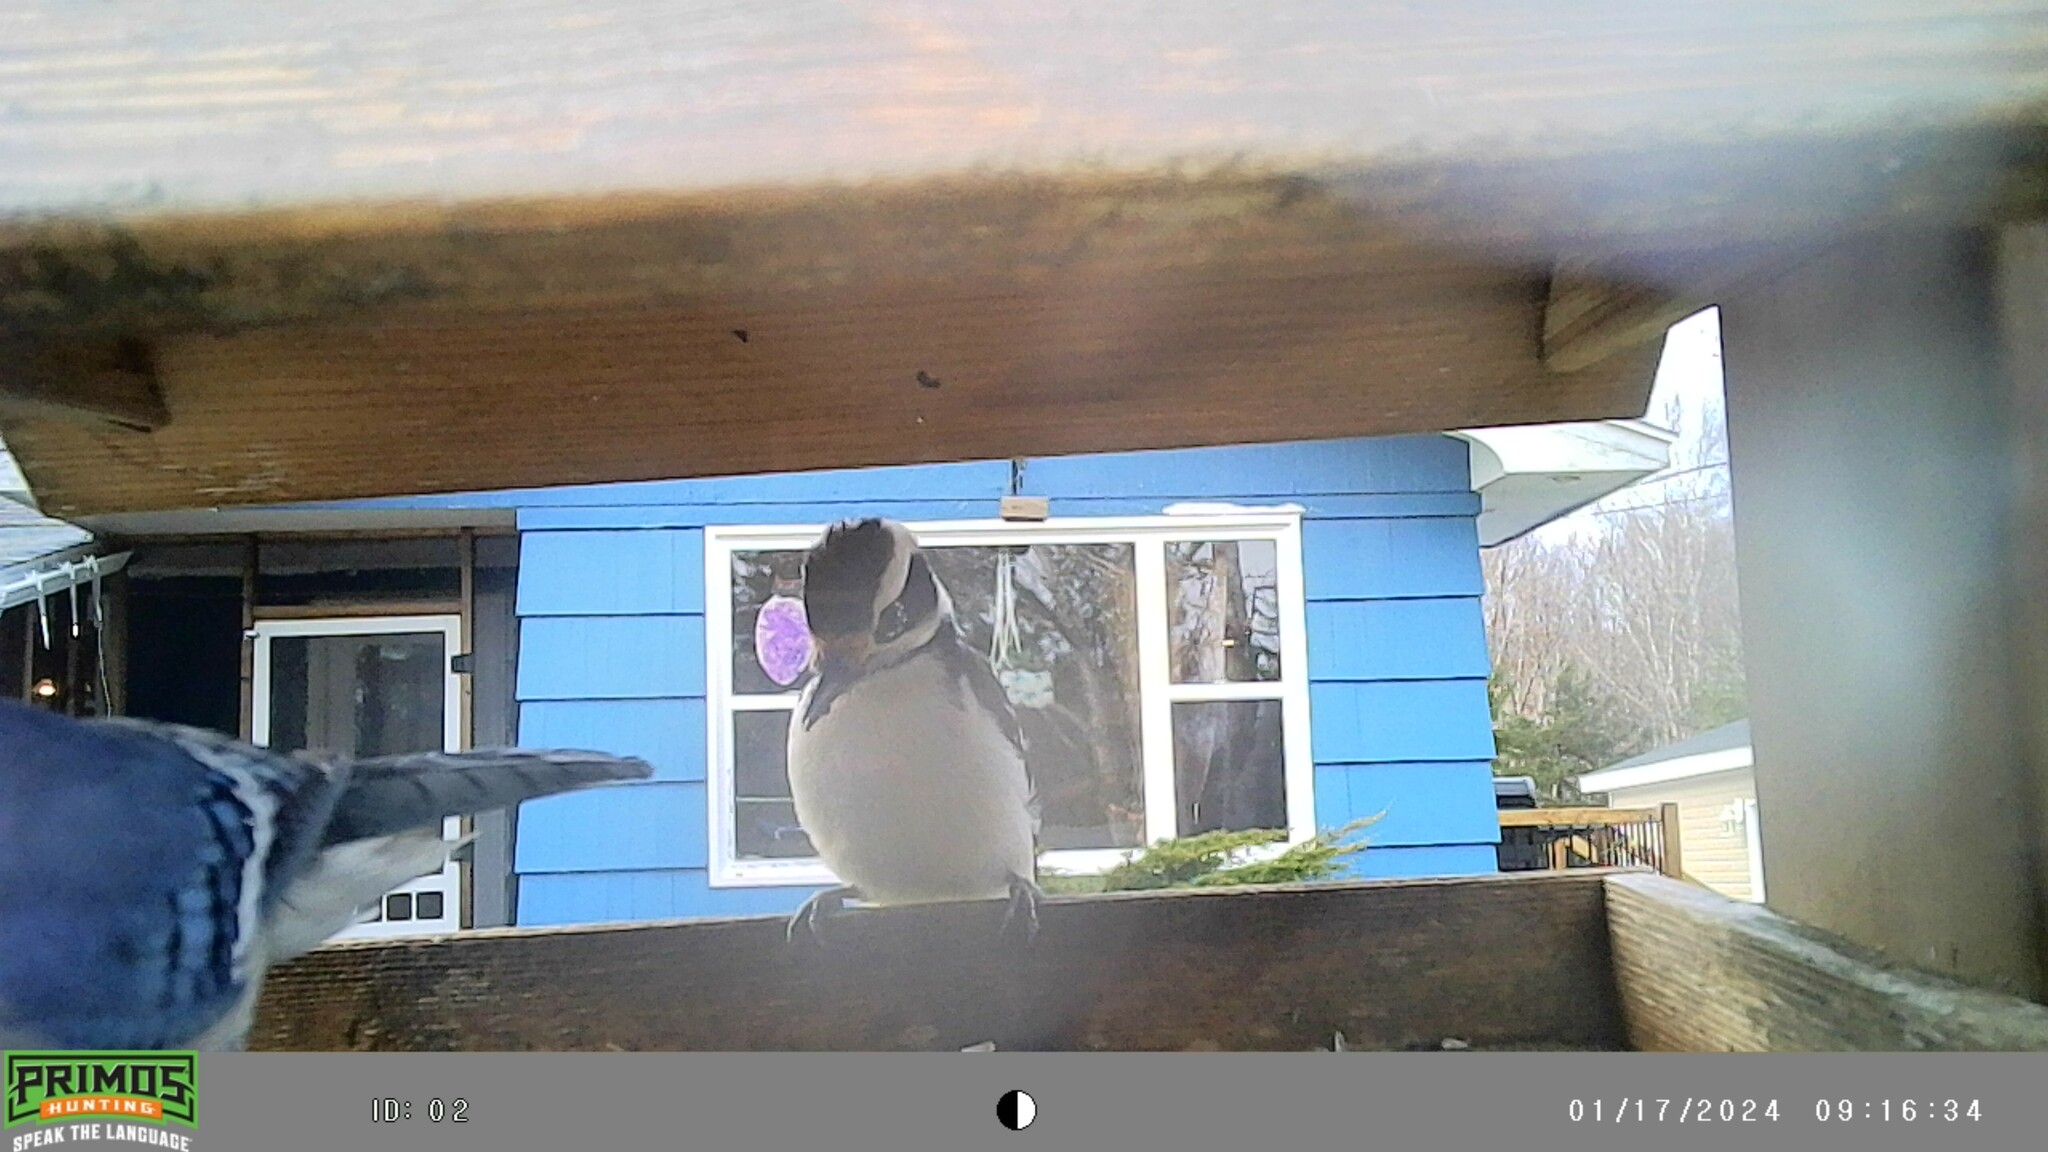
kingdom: Animalia
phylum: Chordata
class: Aves
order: Piciformes
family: Picidae
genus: Leuconotopicus
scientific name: Leuconotopicus villosus
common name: Hairy woodpecker
